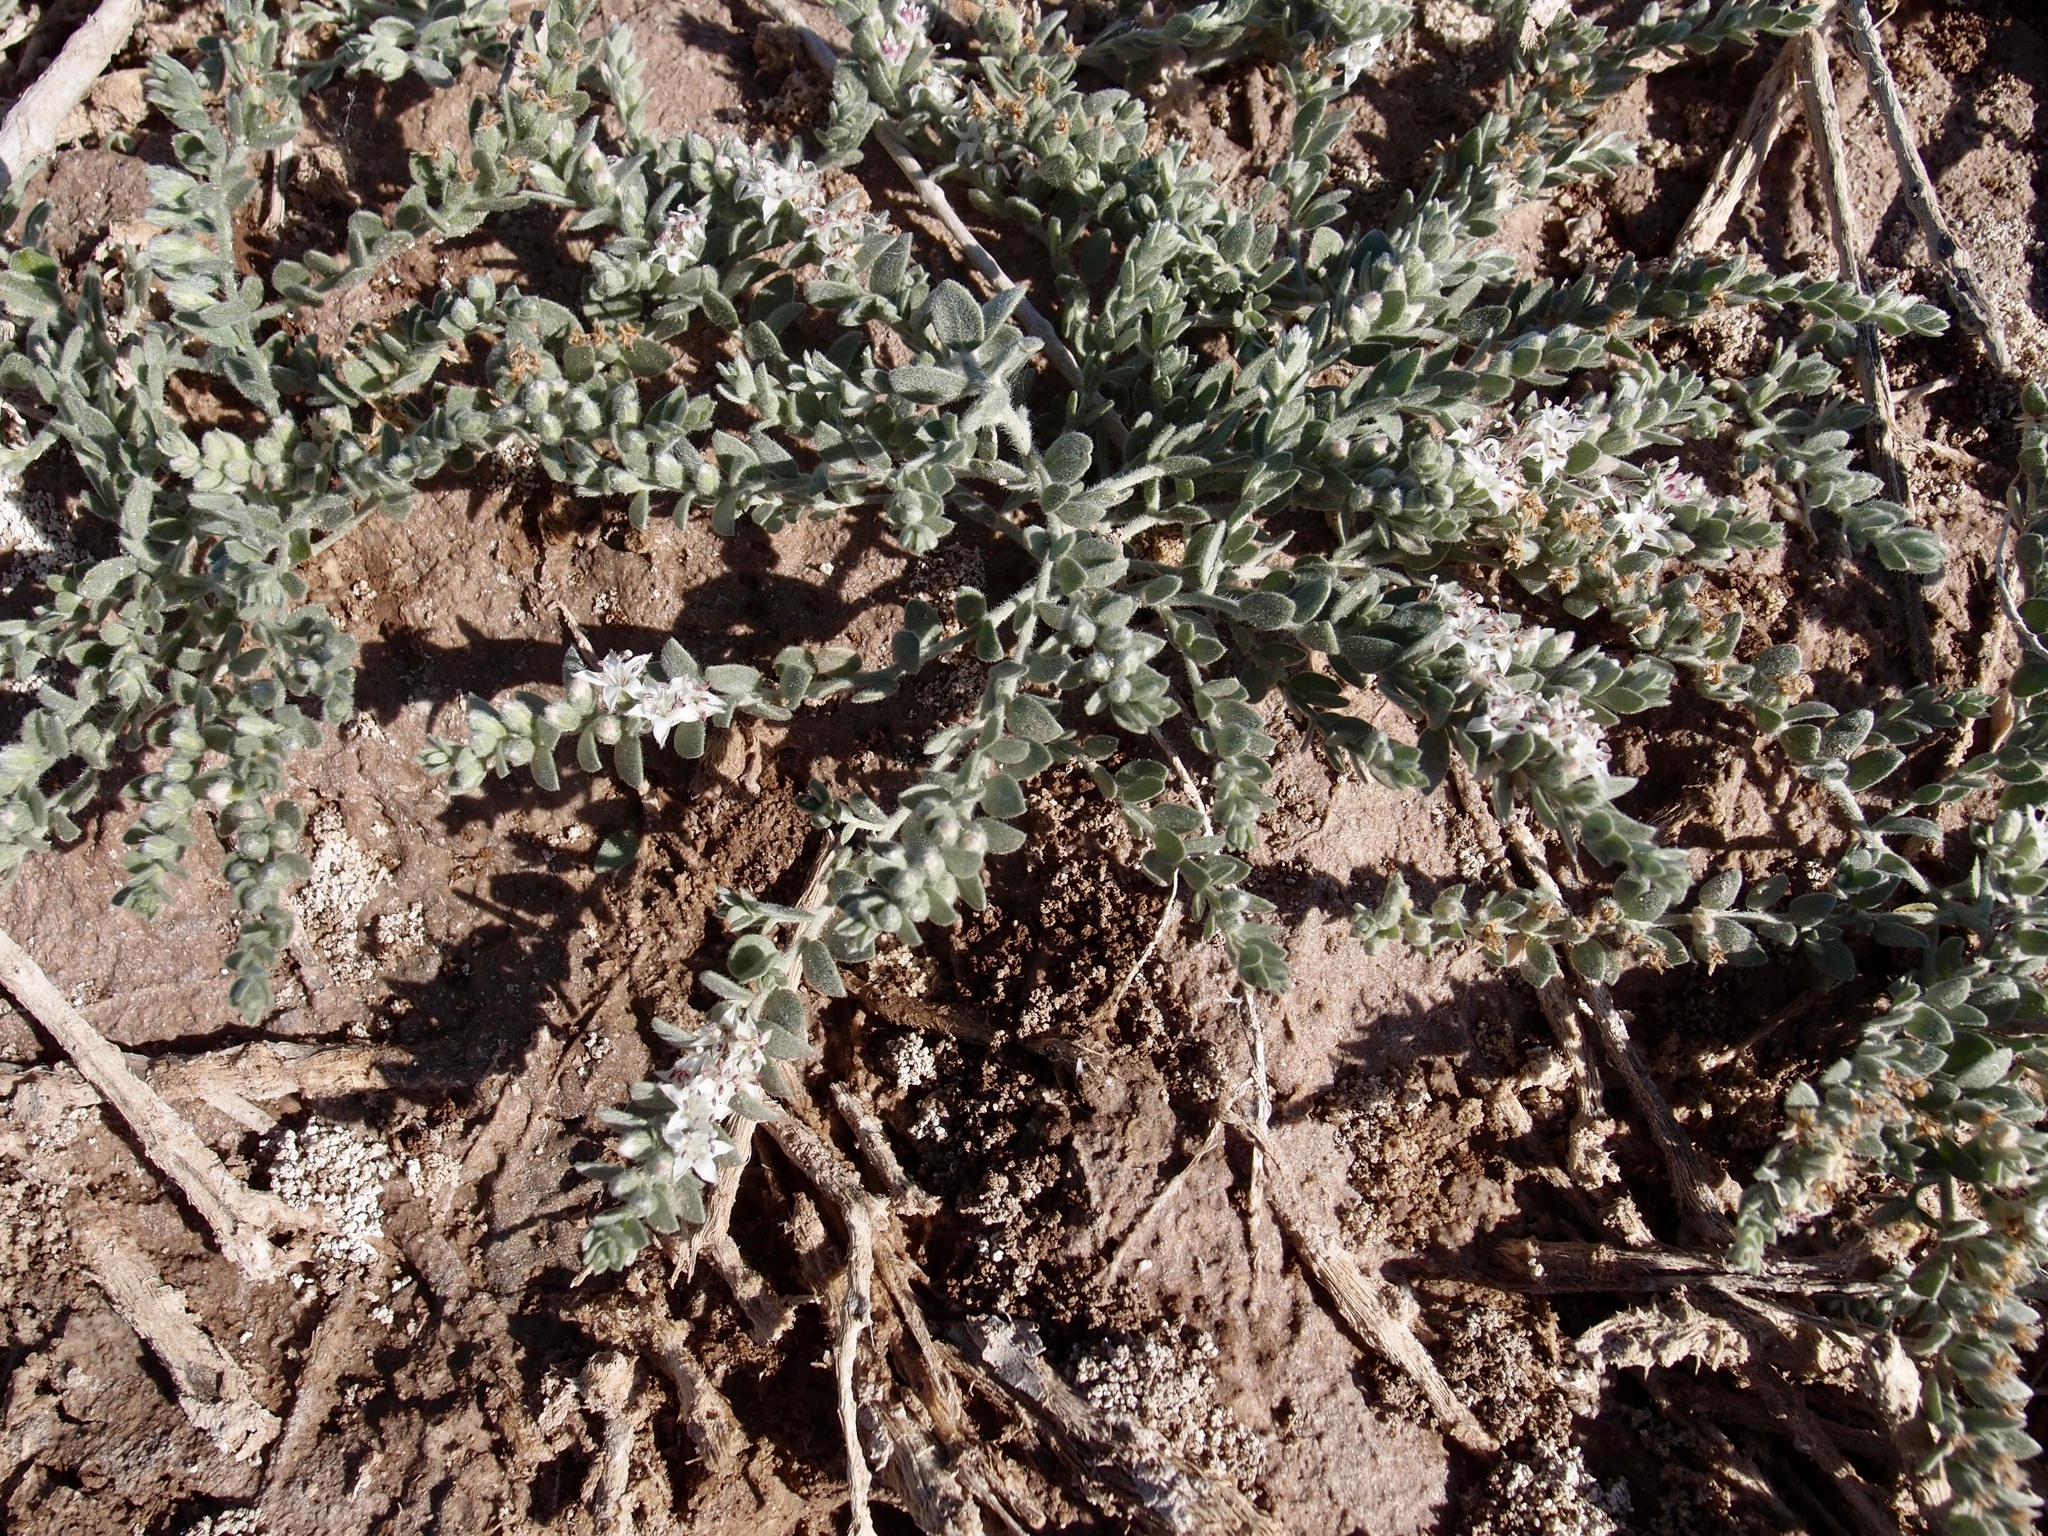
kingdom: Plantae
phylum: Tracheophyta
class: Magnoliopsida
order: Solanales
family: Convolvulaceae
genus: Cressa
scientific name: Cressa truxillensis
